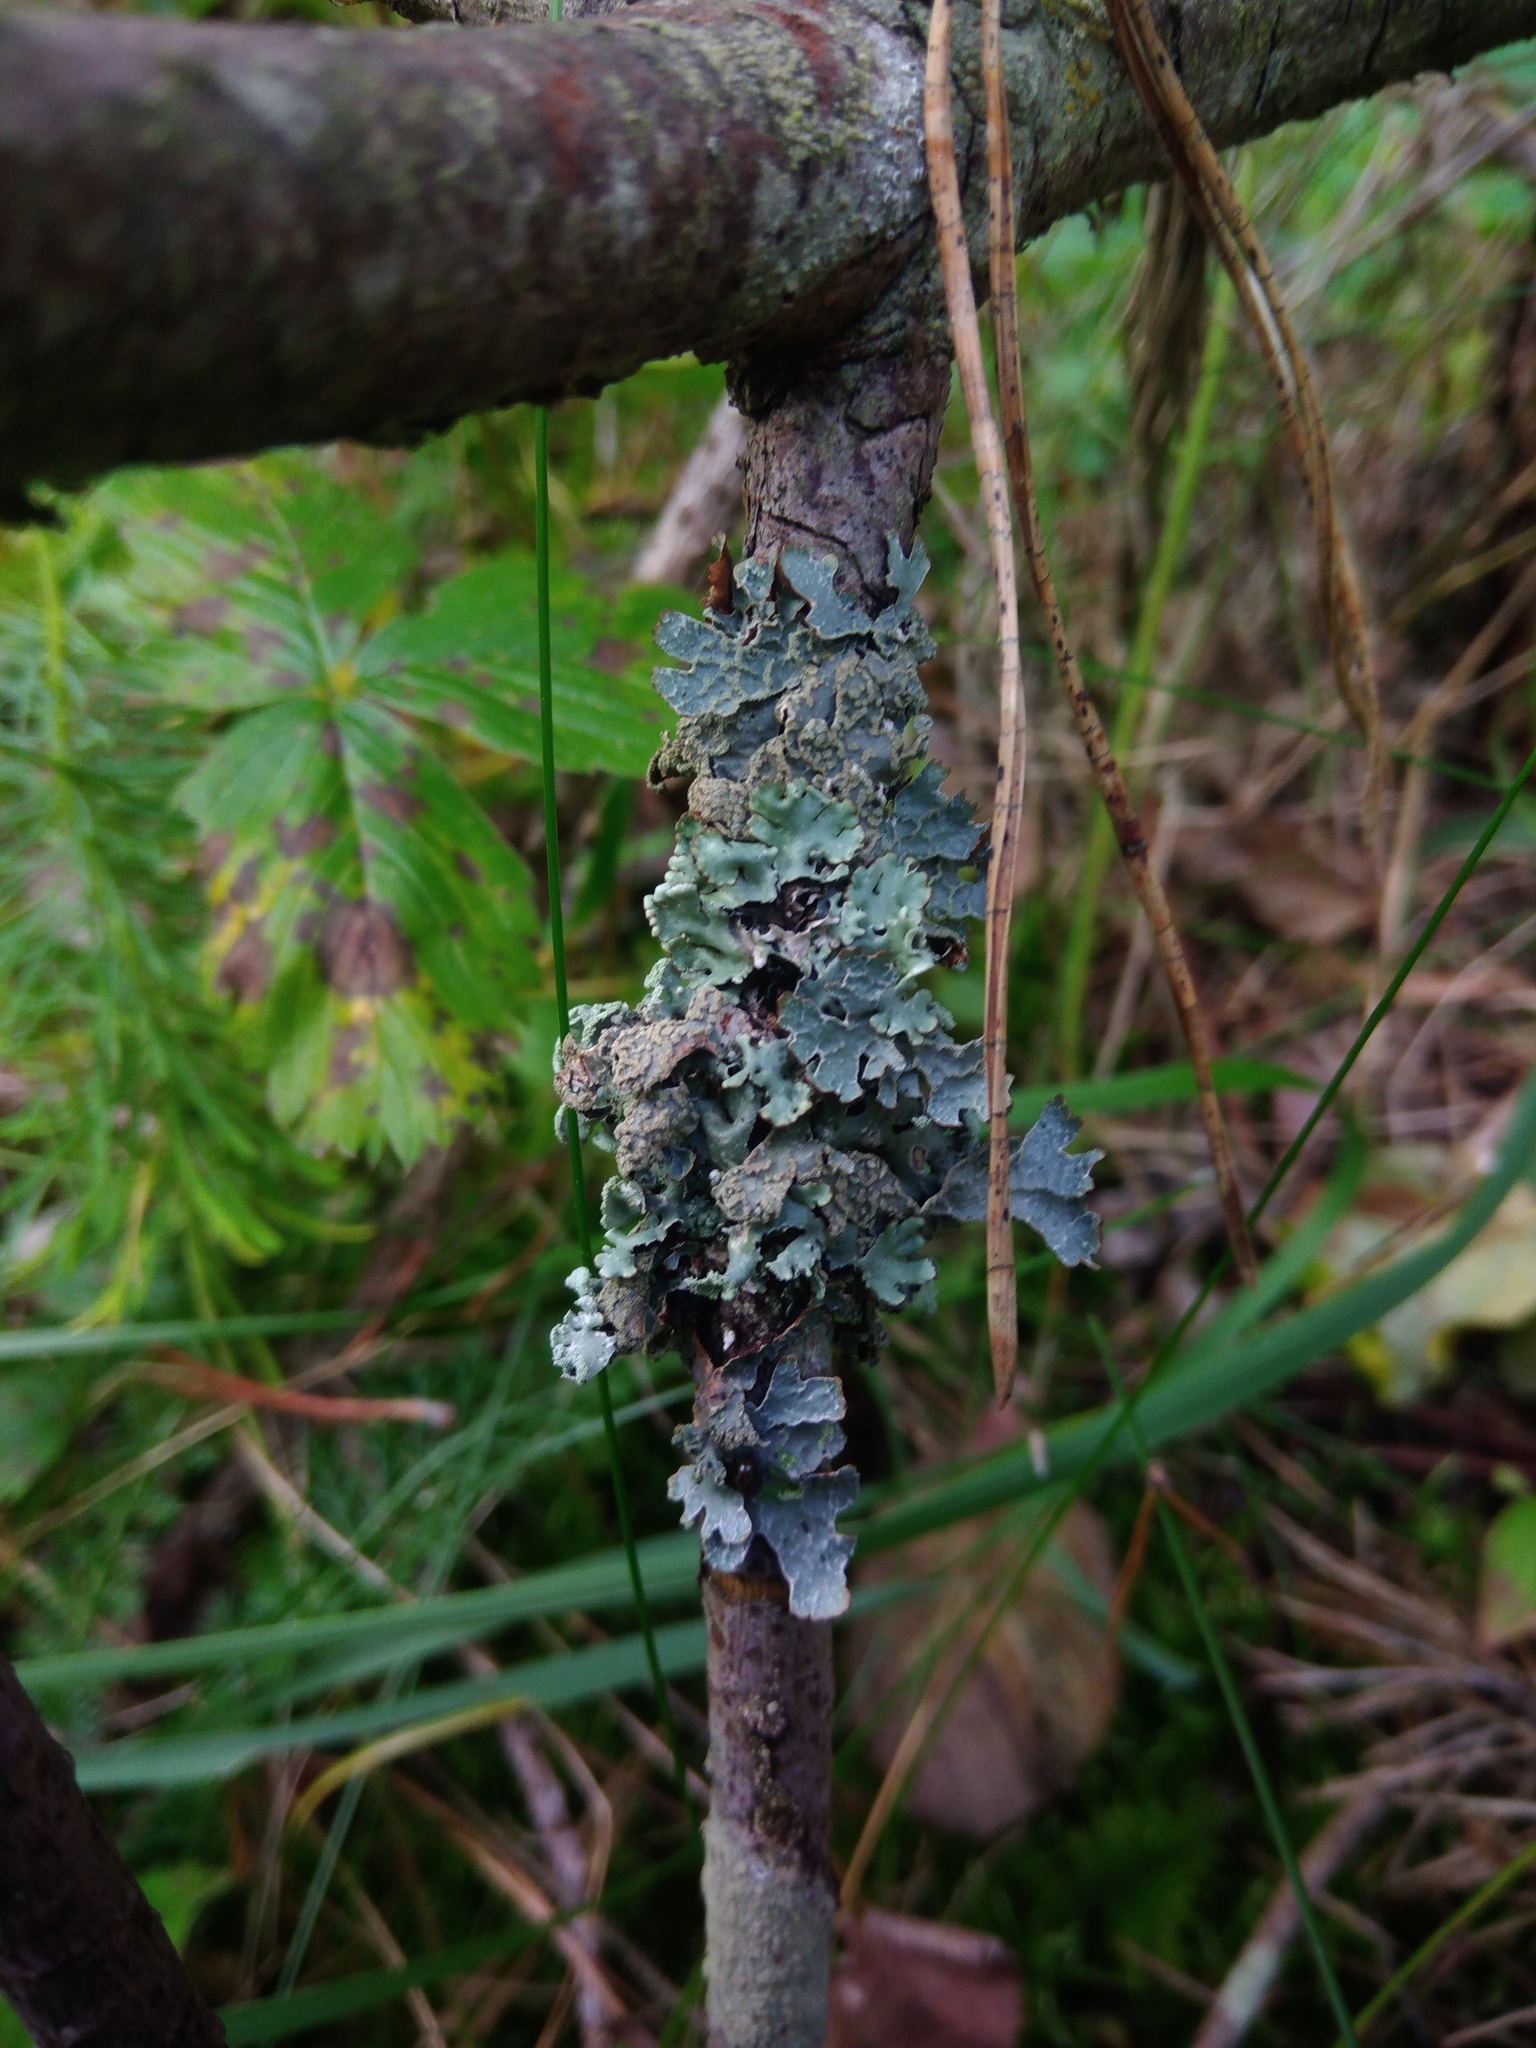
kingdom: Fungi
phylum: Ascomycota
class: Lecanoromycetes
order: Lecanorales
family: Parmeliaceae
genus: Parmelia
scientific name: Parmelia sulcata
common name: Netted shield lichen
